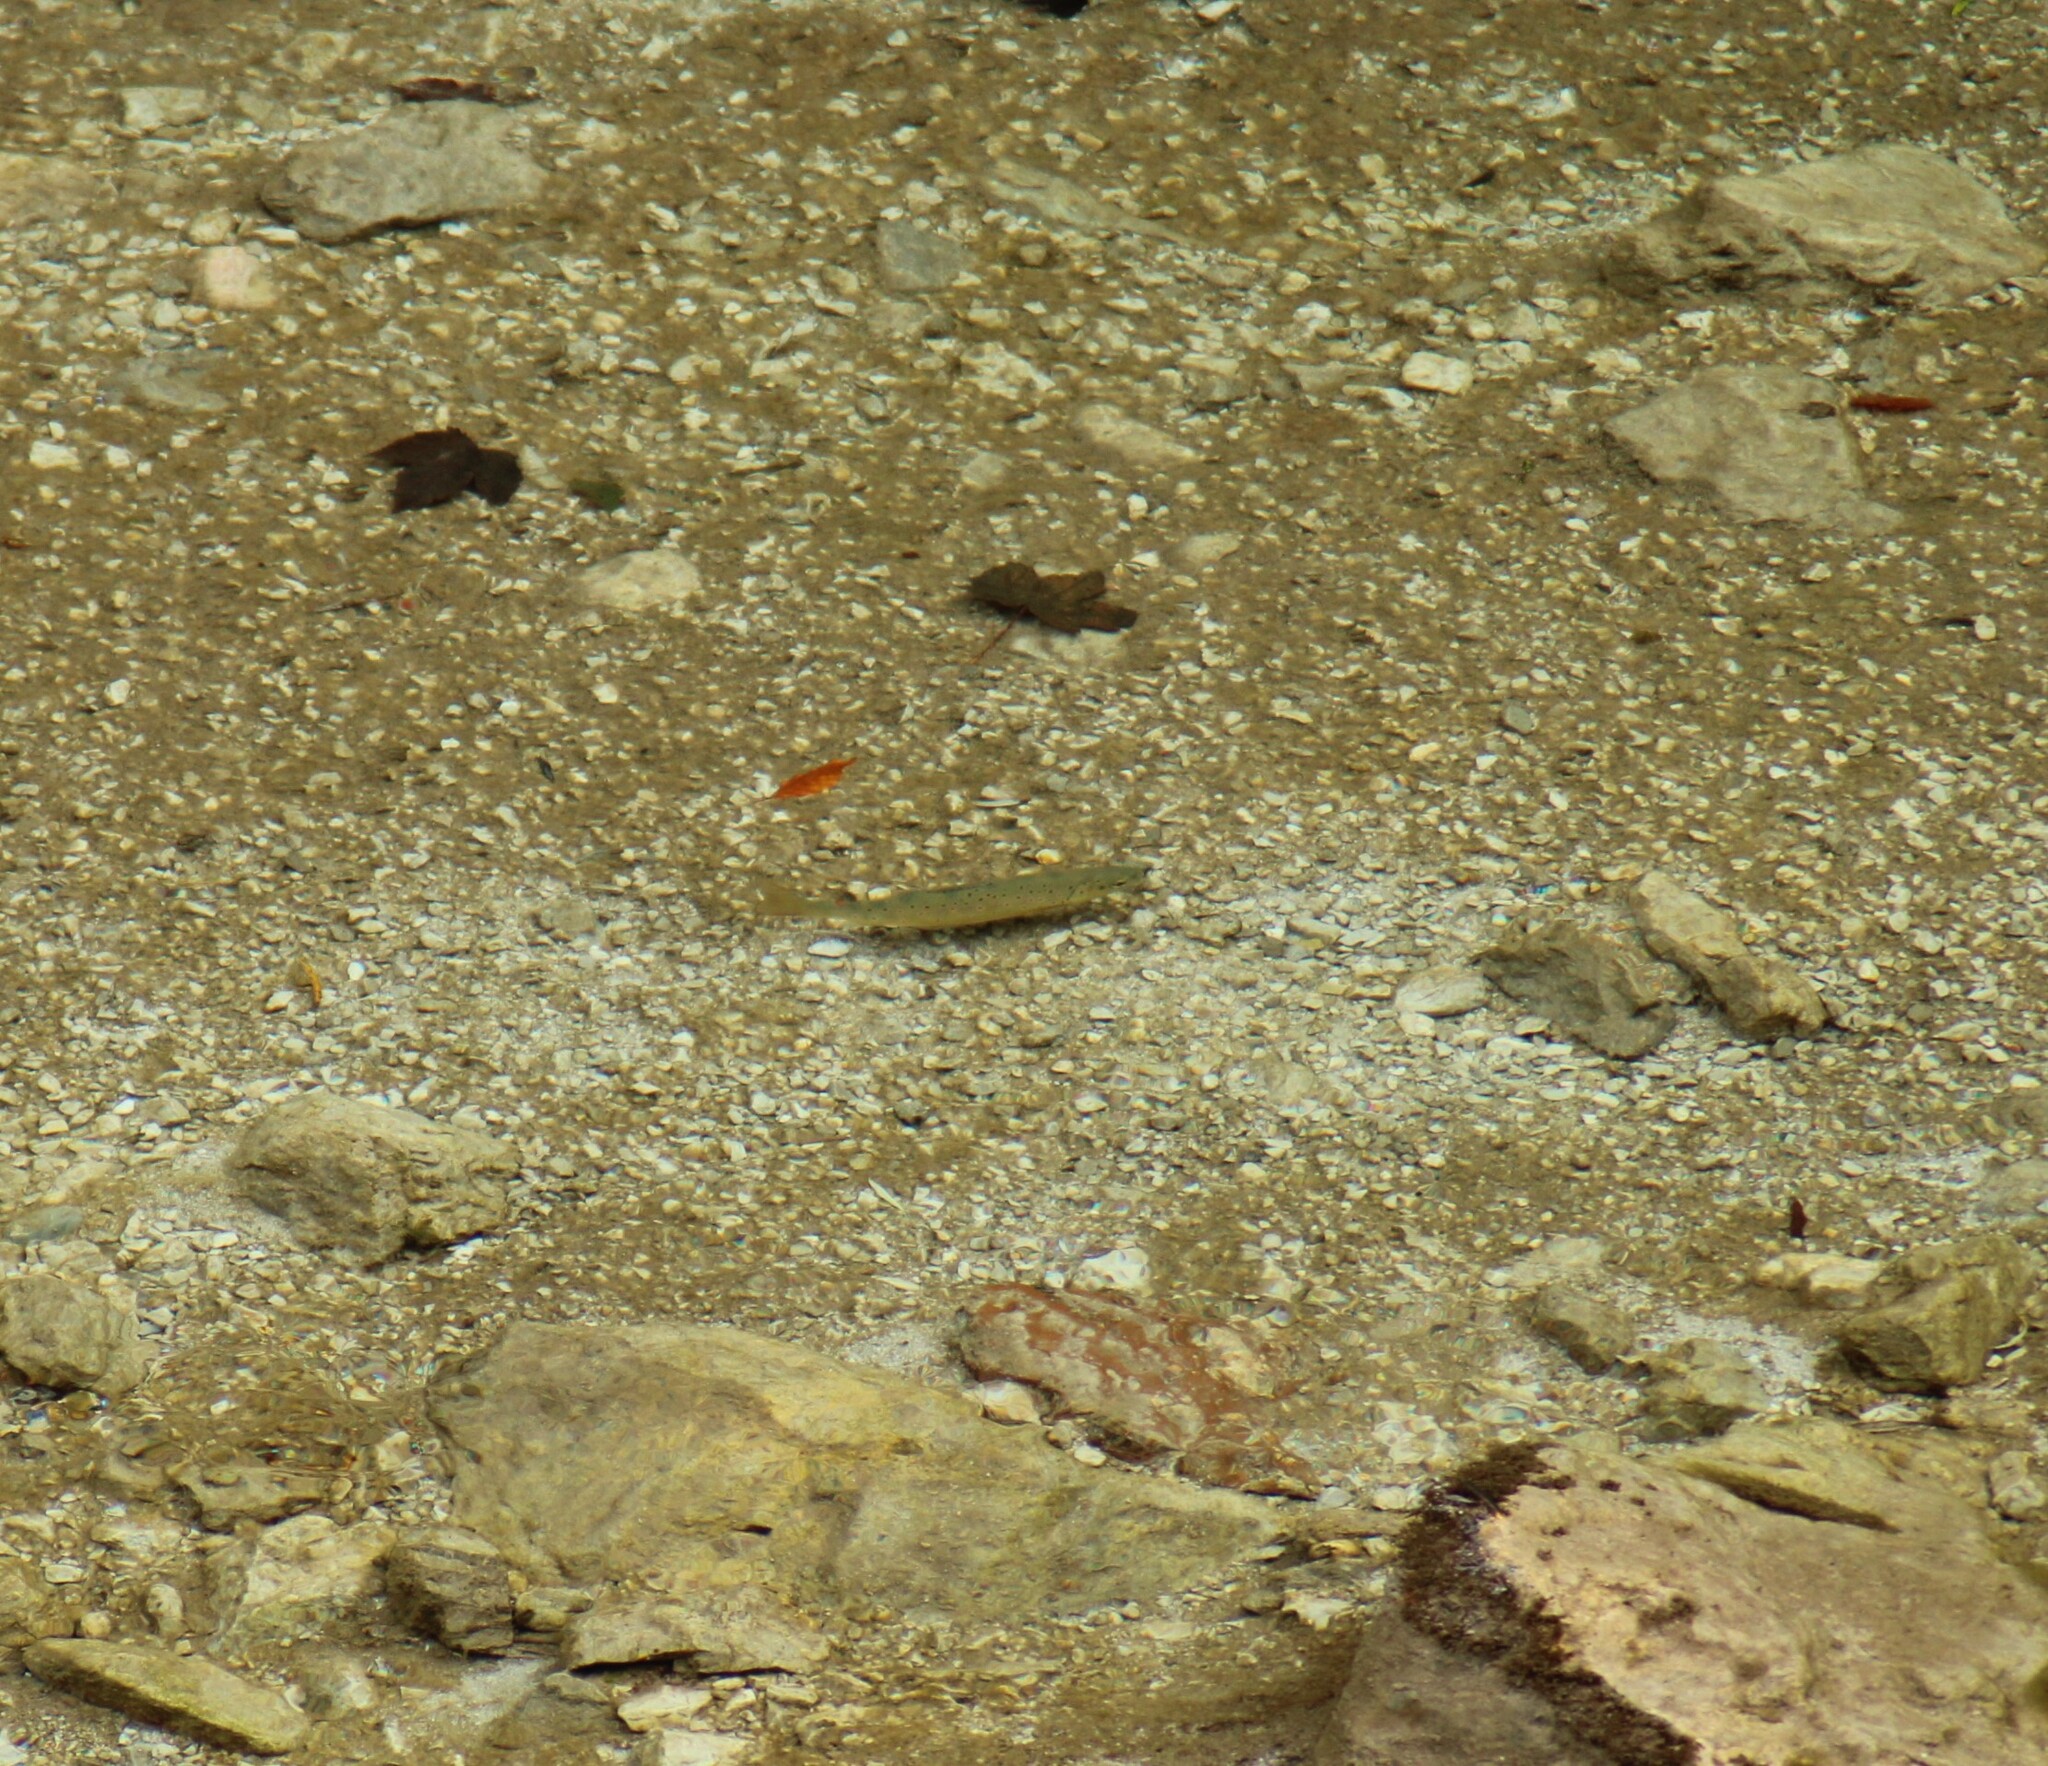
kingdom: Animalia
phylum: Chordata
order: Salmoniformes
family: Salmonidae
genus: Salmo
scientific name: Salmo trutta
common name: Brown trout
